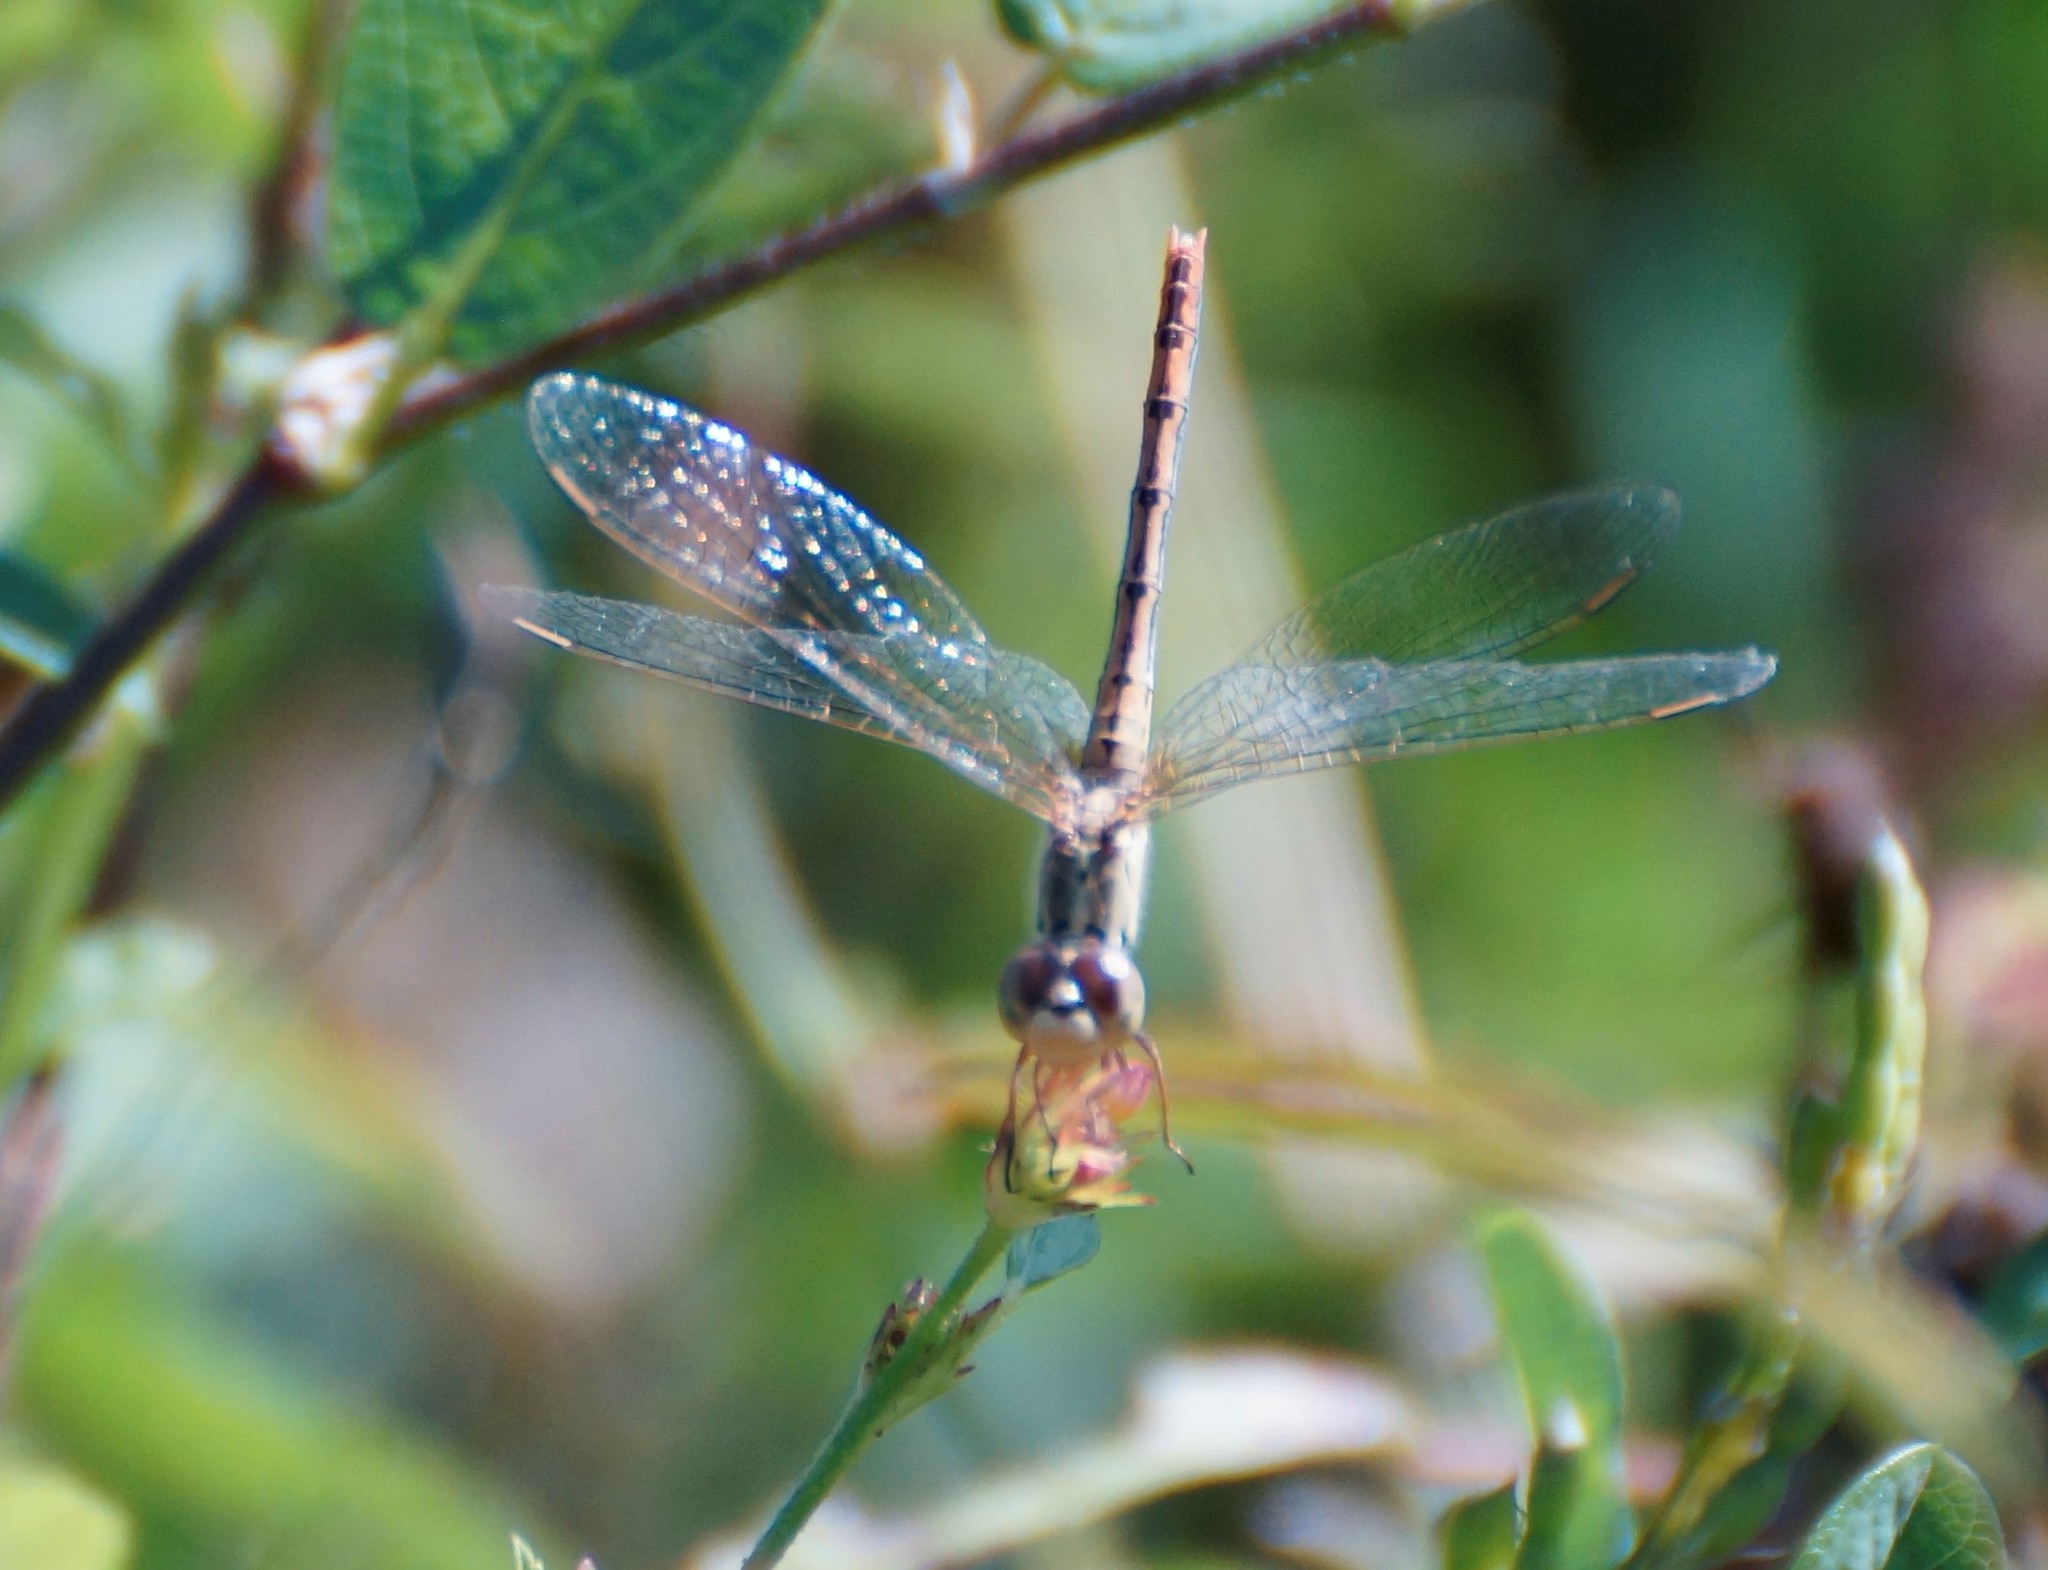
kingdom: Animalia
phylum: Arthropoda
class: Insecta
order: Odonata
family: Libellulidae
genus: Diplacodes
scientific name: Diplacodes bipunctata
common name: Red percher dragonfly
